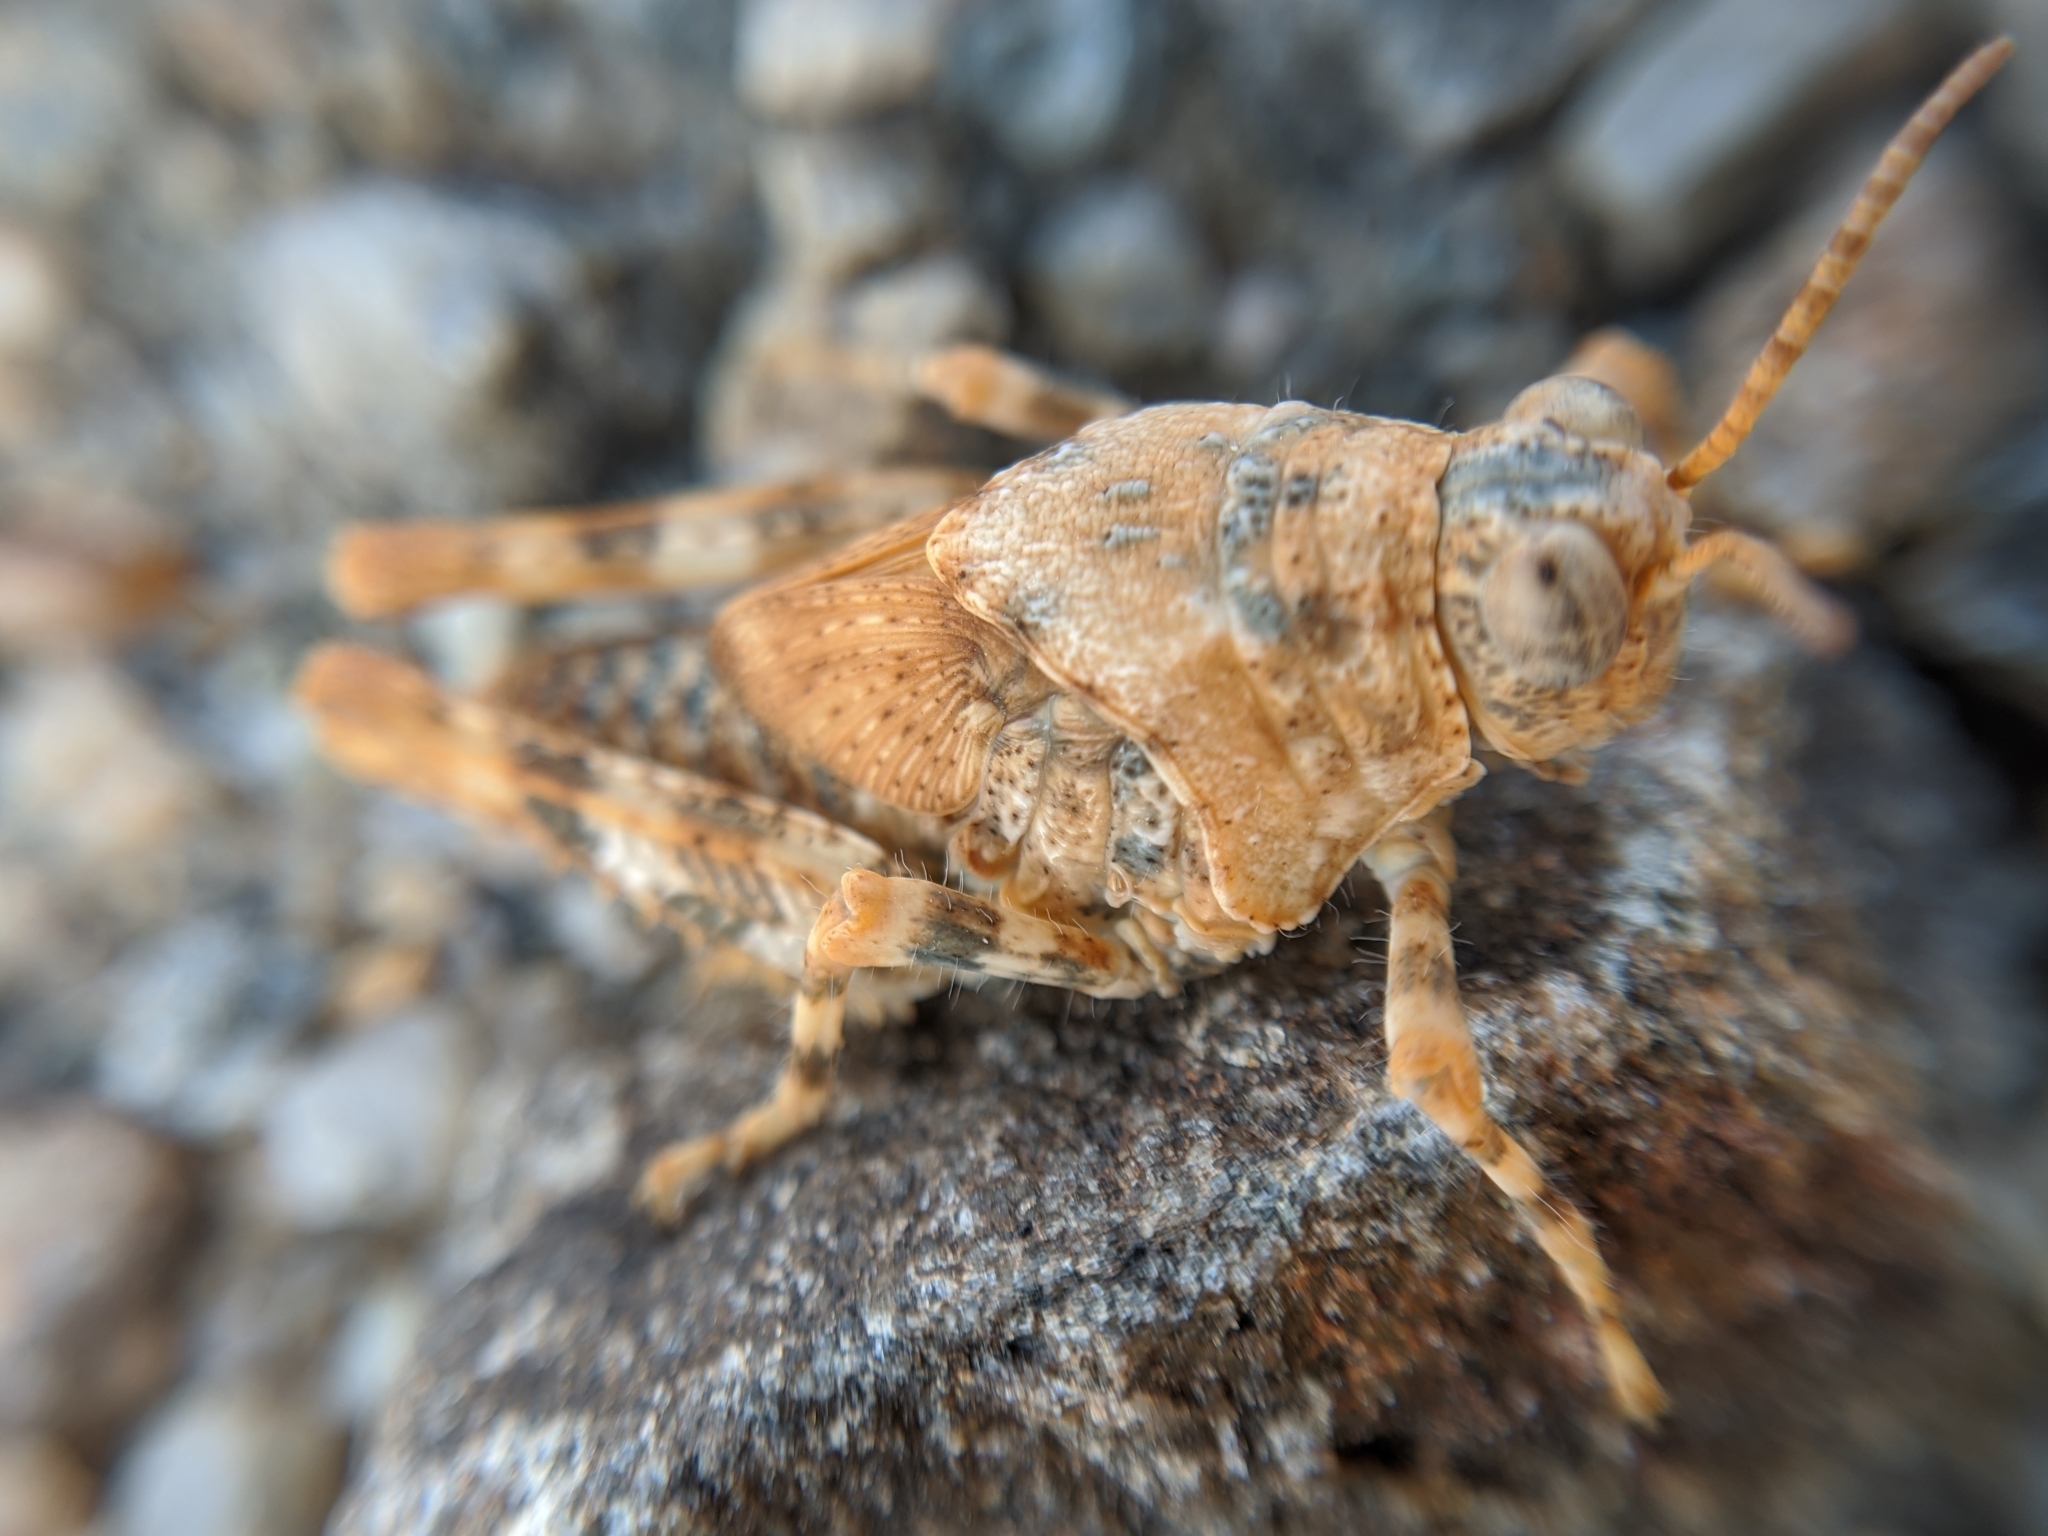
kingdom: Animalia
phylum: Arthropoda
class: Insecta
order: Orthoptera
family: Romaleidae
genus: Tytthotyle
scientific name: Tytthotyle maculata
